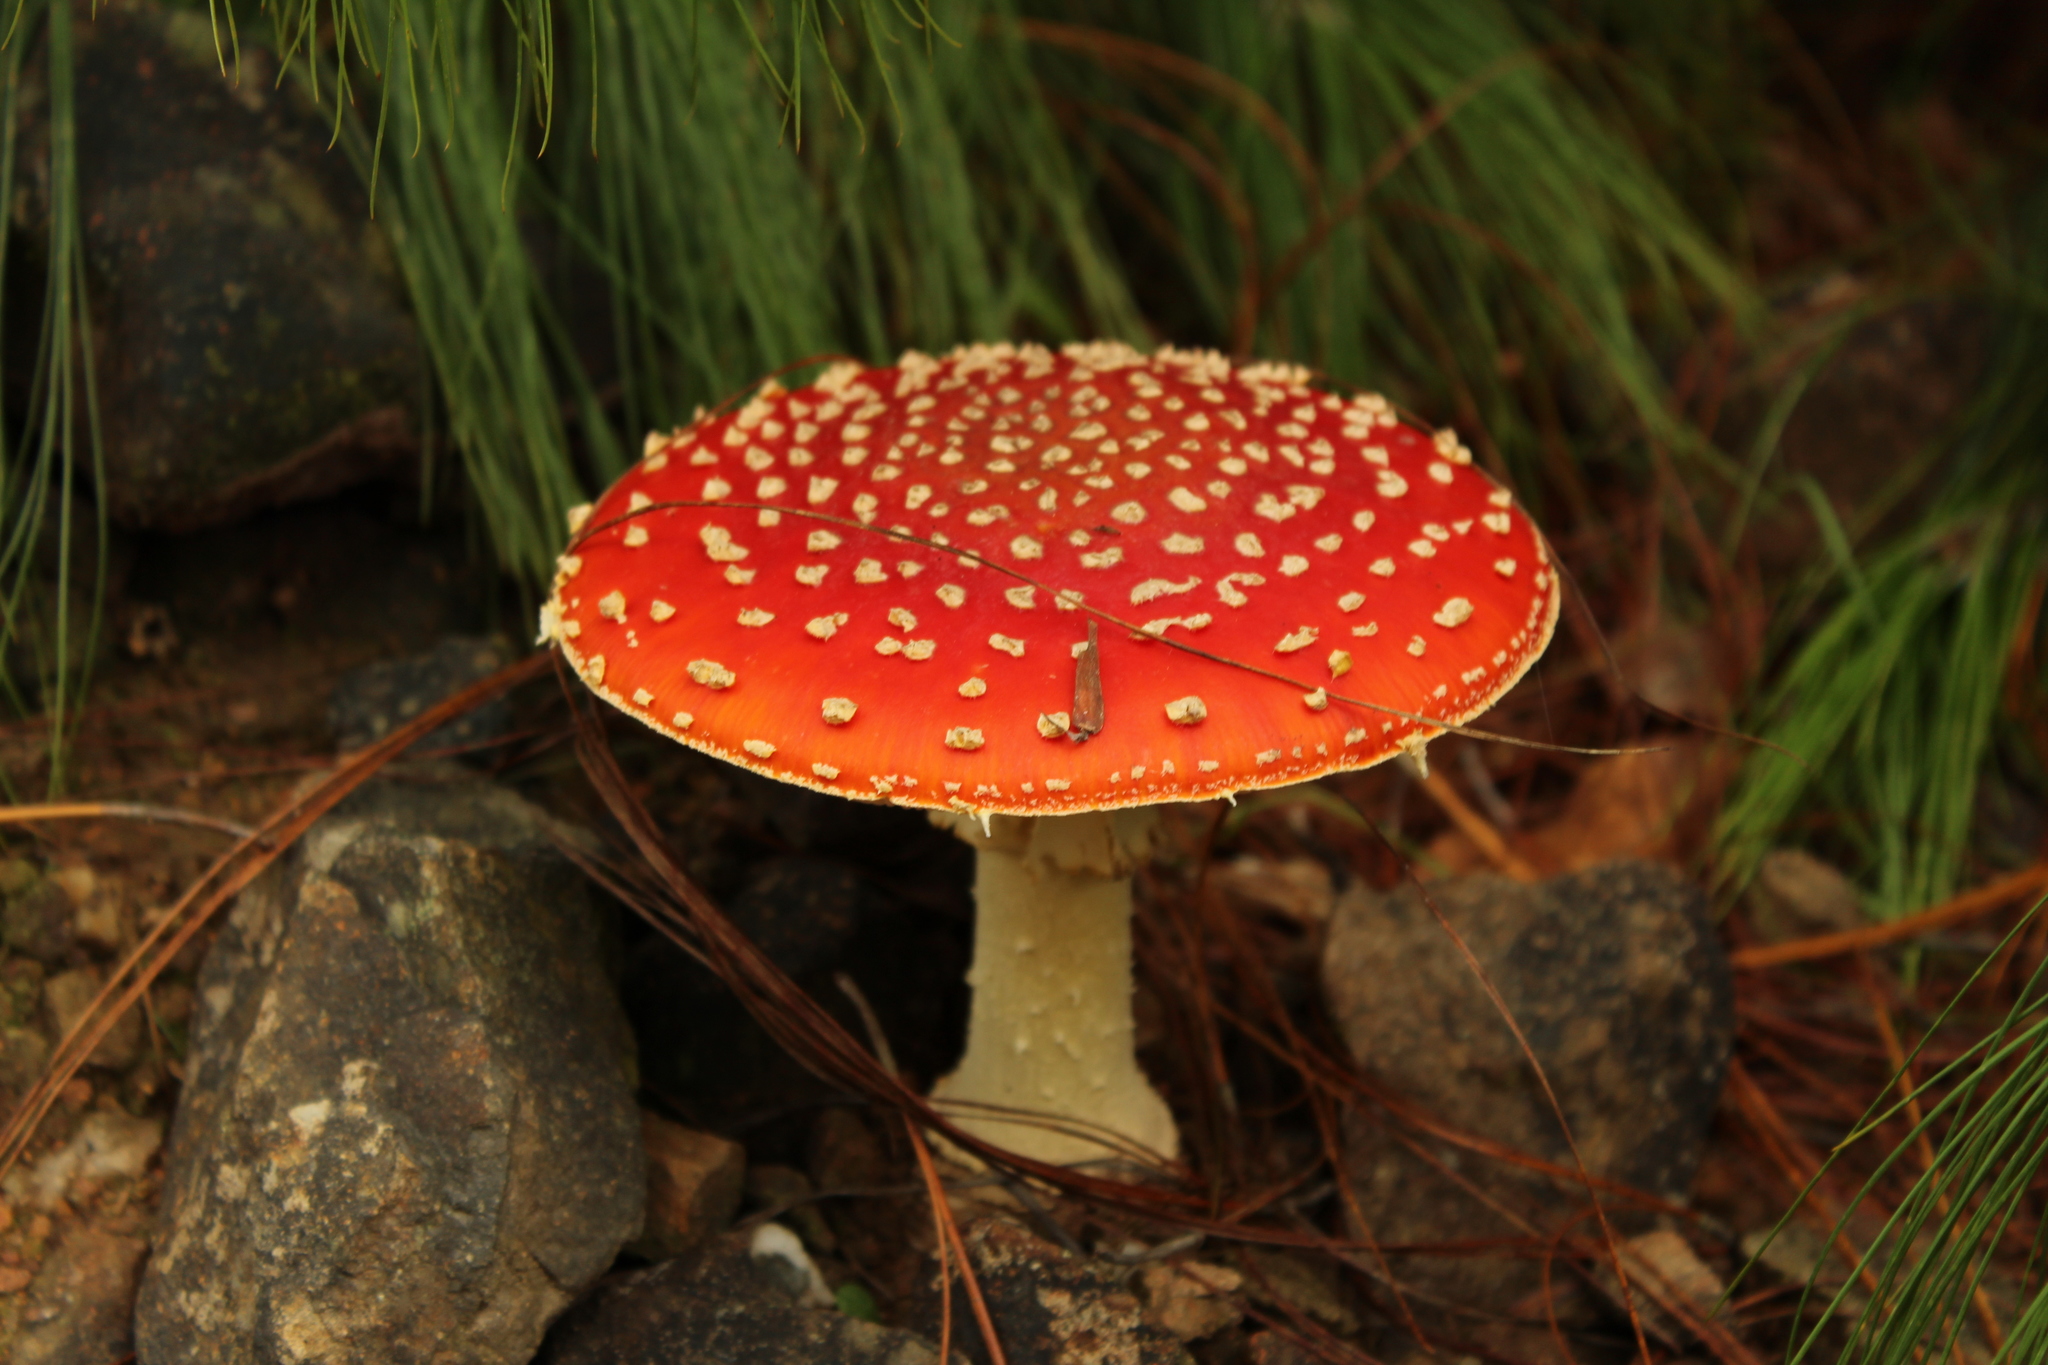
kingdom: Fungi
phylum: Basidiomycota
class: Agaricomycetes
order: Agaricales
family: Amanitaceae
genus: Amanita
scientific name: Amanita muscaria
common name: Fly agaric
